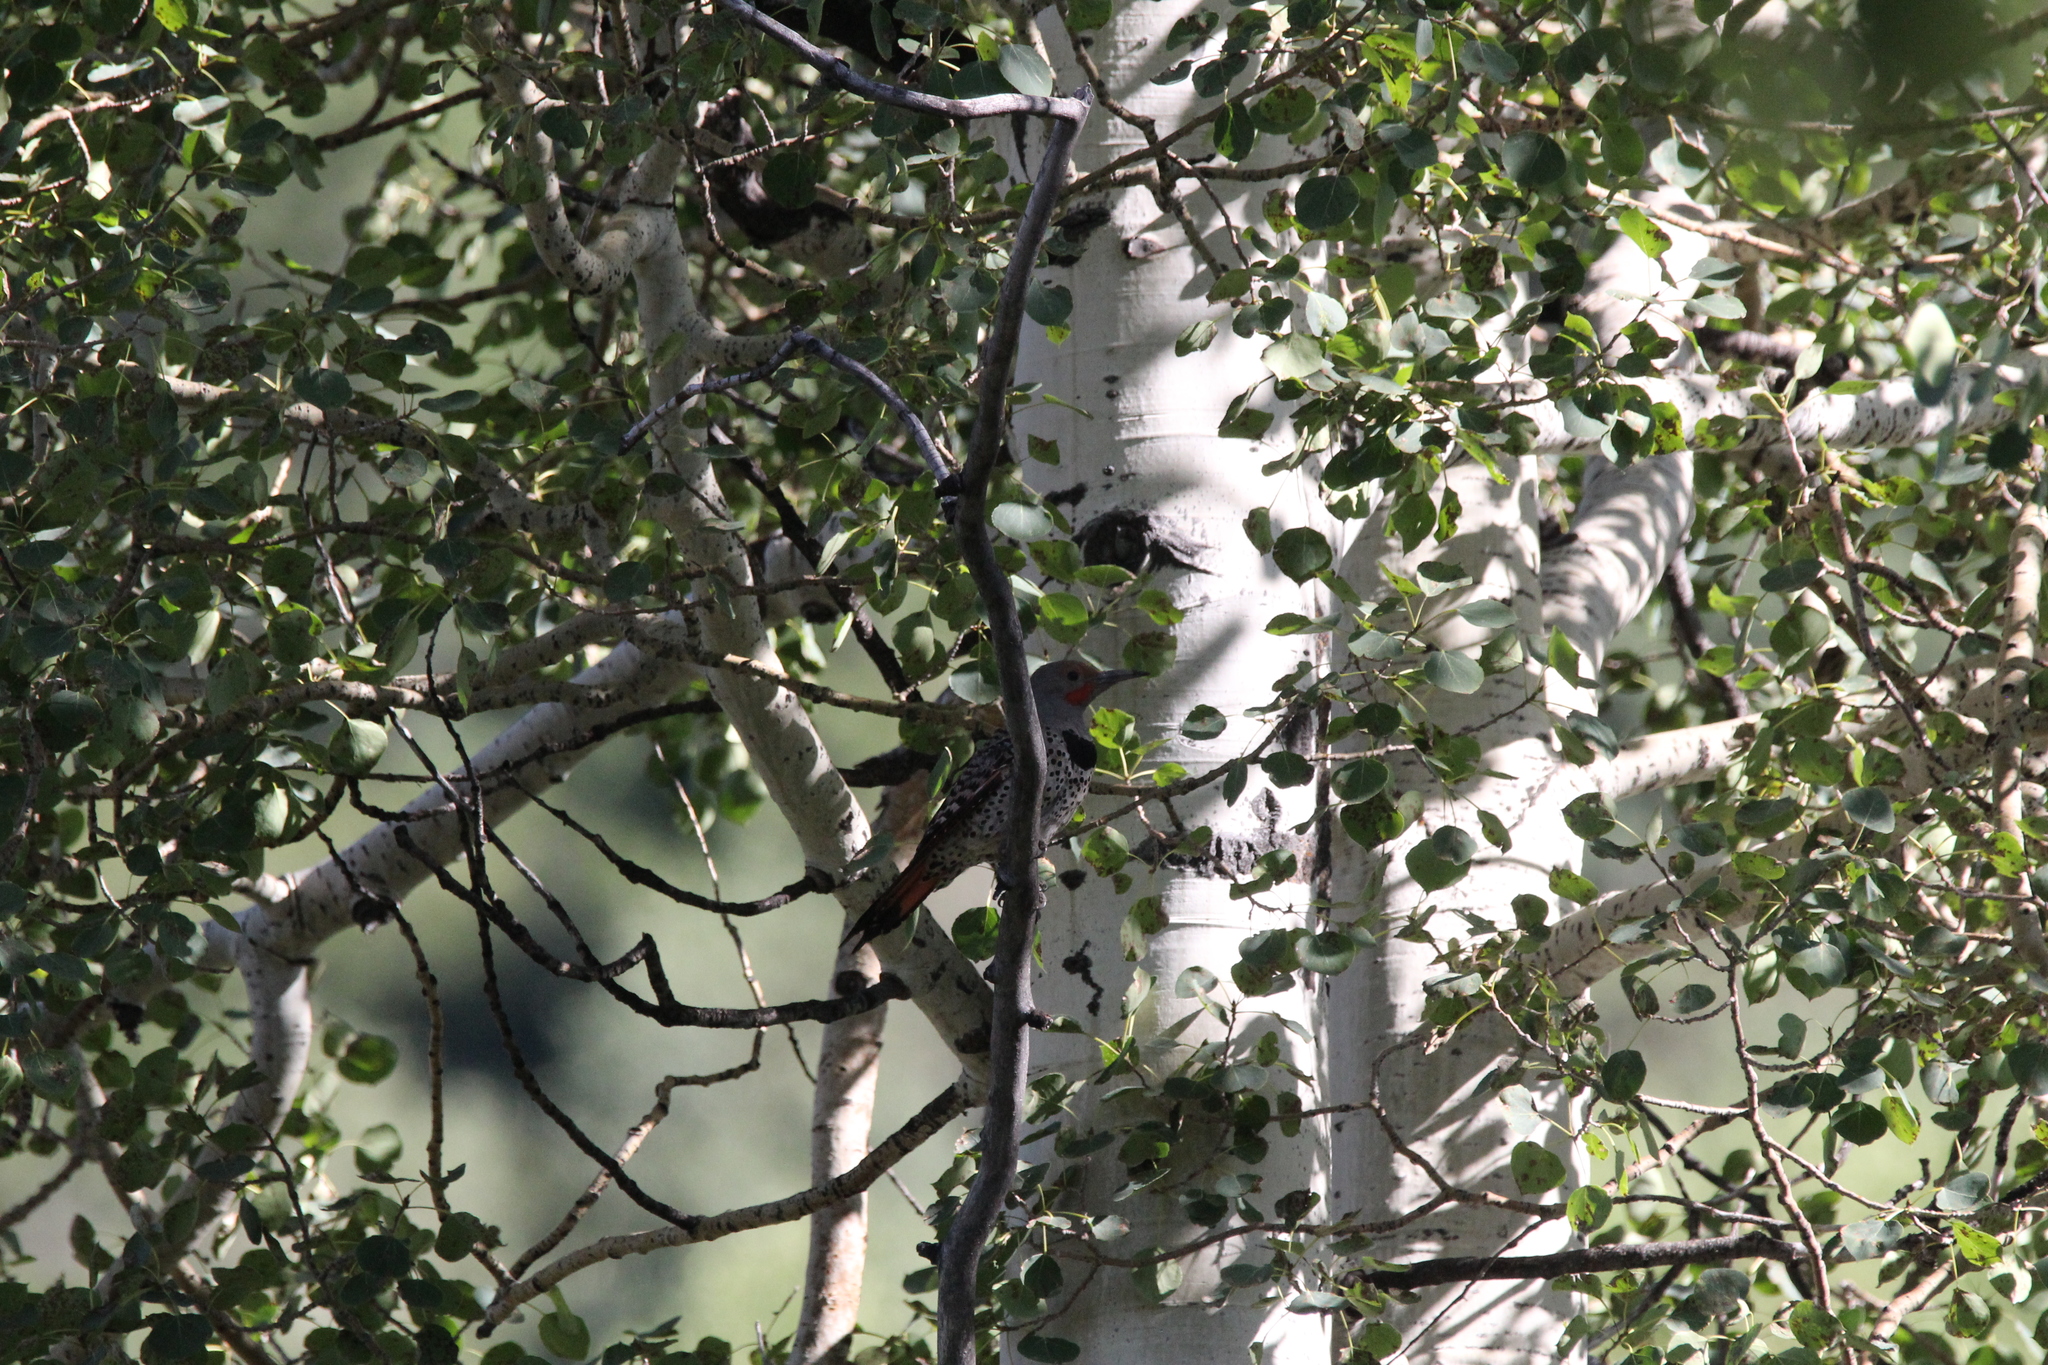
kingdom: Animalia
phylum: Chordata
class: Aves
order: Piciformes
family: Picidae
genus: Colaptes
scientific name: Colaptes auratus
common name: Northern flicker
